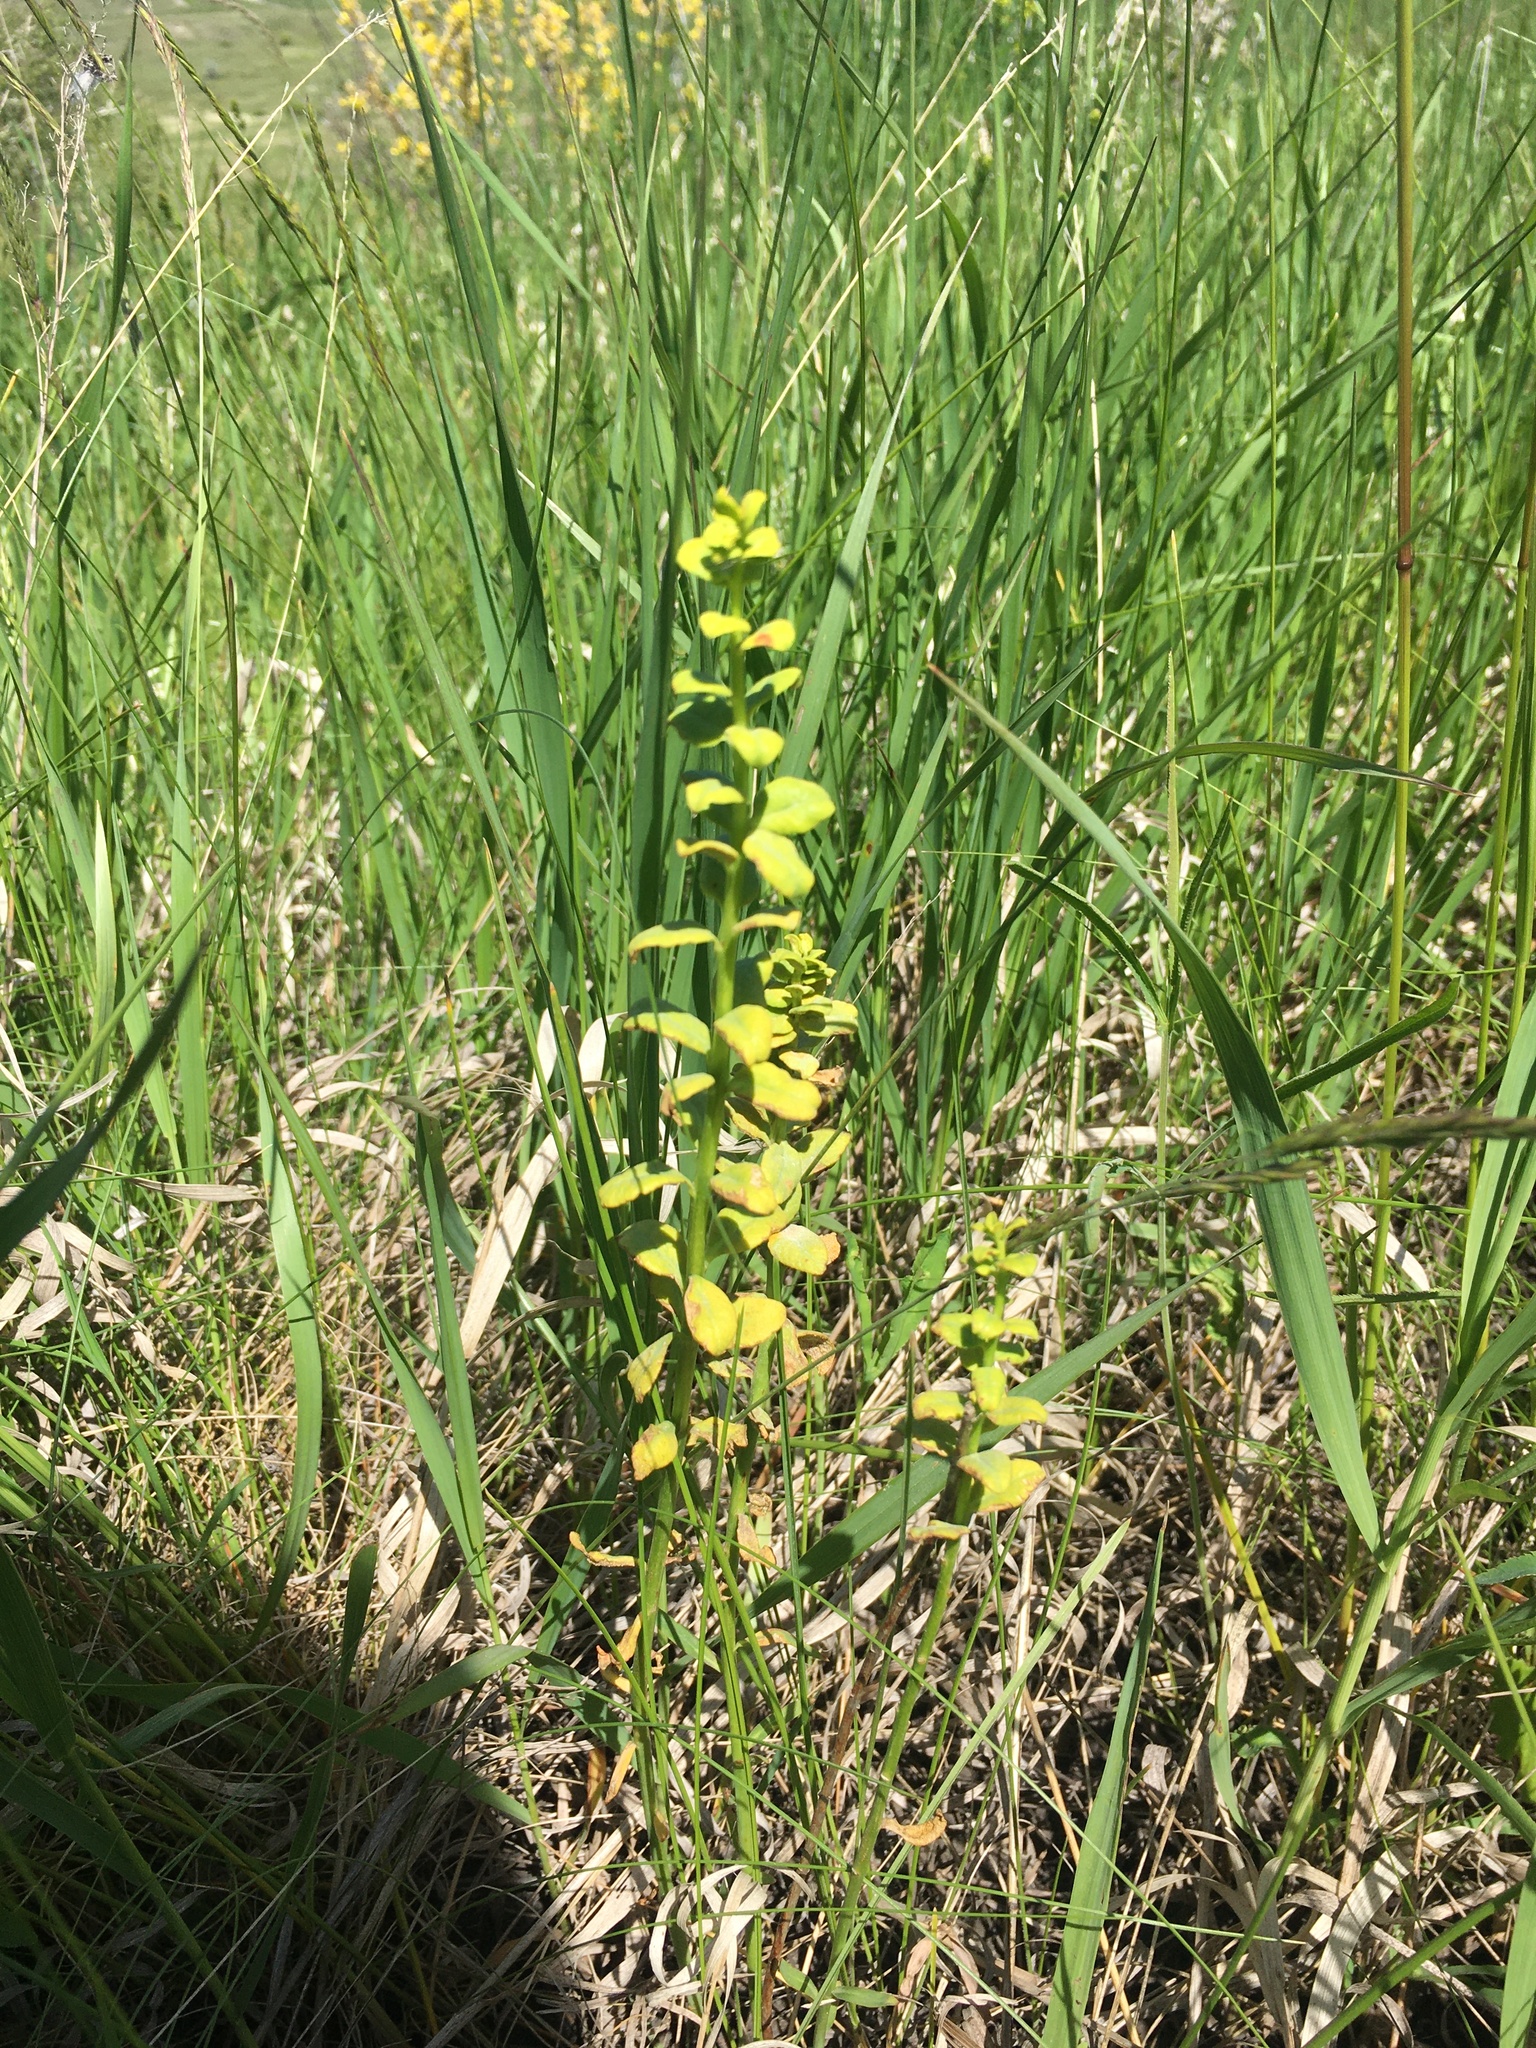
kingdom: Plantae
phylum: Tracheophyta
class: Magnoliopsida
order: Malpighiales
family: Euphorbiaceae
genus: Euphorbia
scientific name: Euphorbia virgata
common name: Leafy spurge
